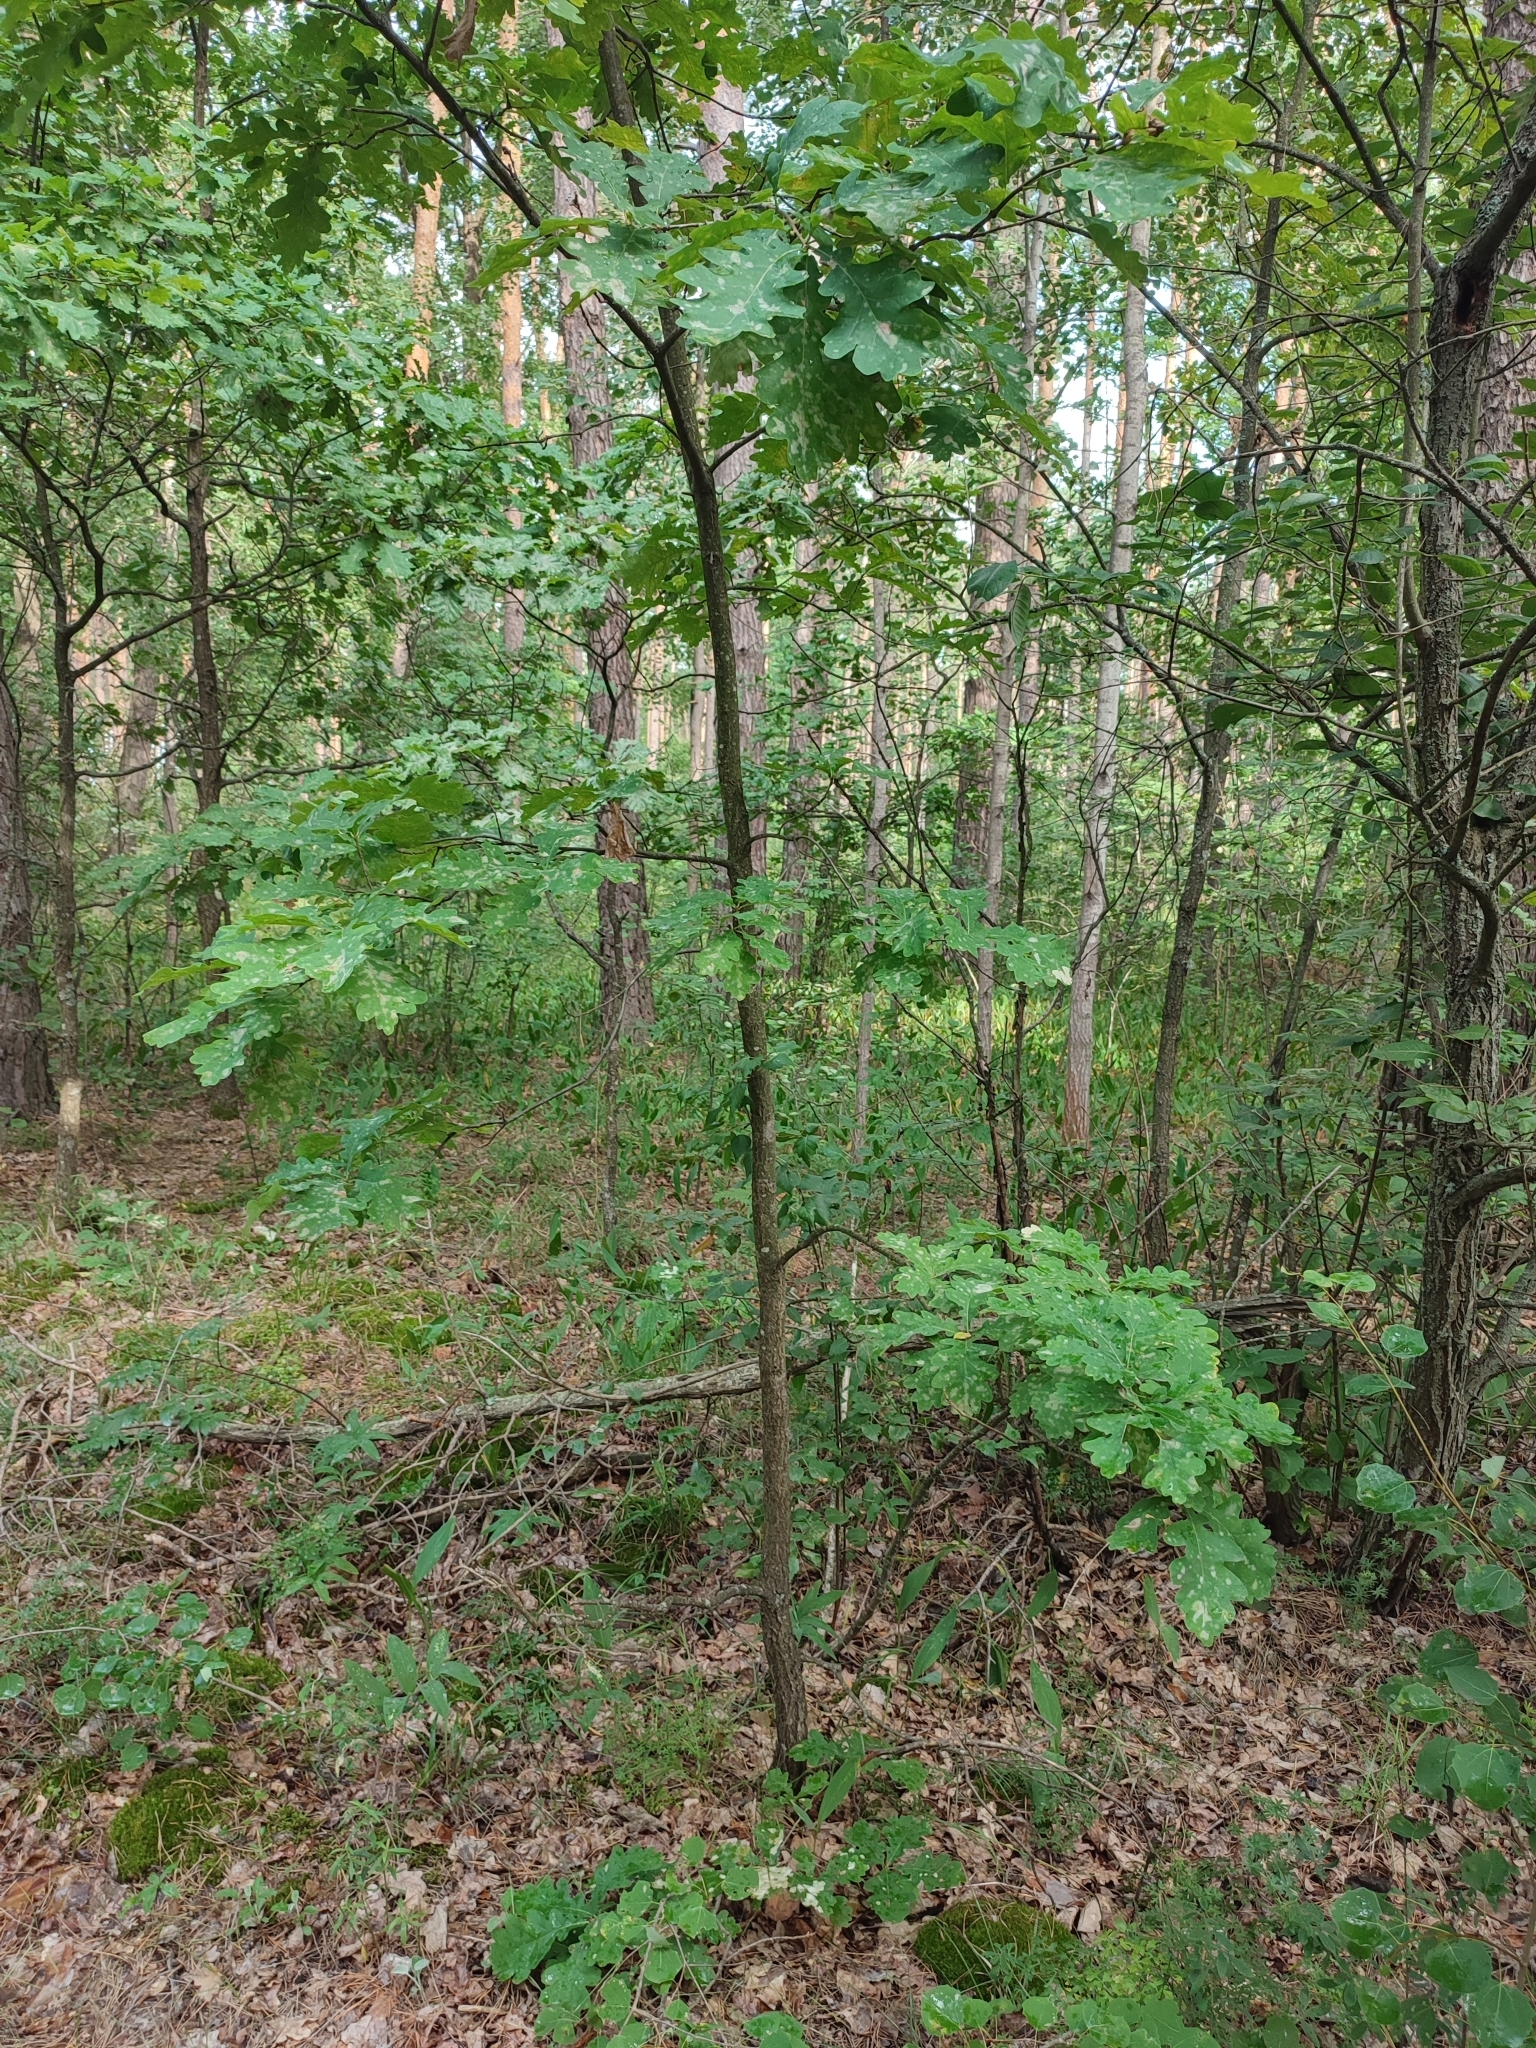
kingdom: Plantae
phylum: Tracheophyta
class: Magnoliopsida
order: Fagales
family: Fagaceae
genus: Quercus
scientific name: Quercus robur
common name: Pedunculate oak
